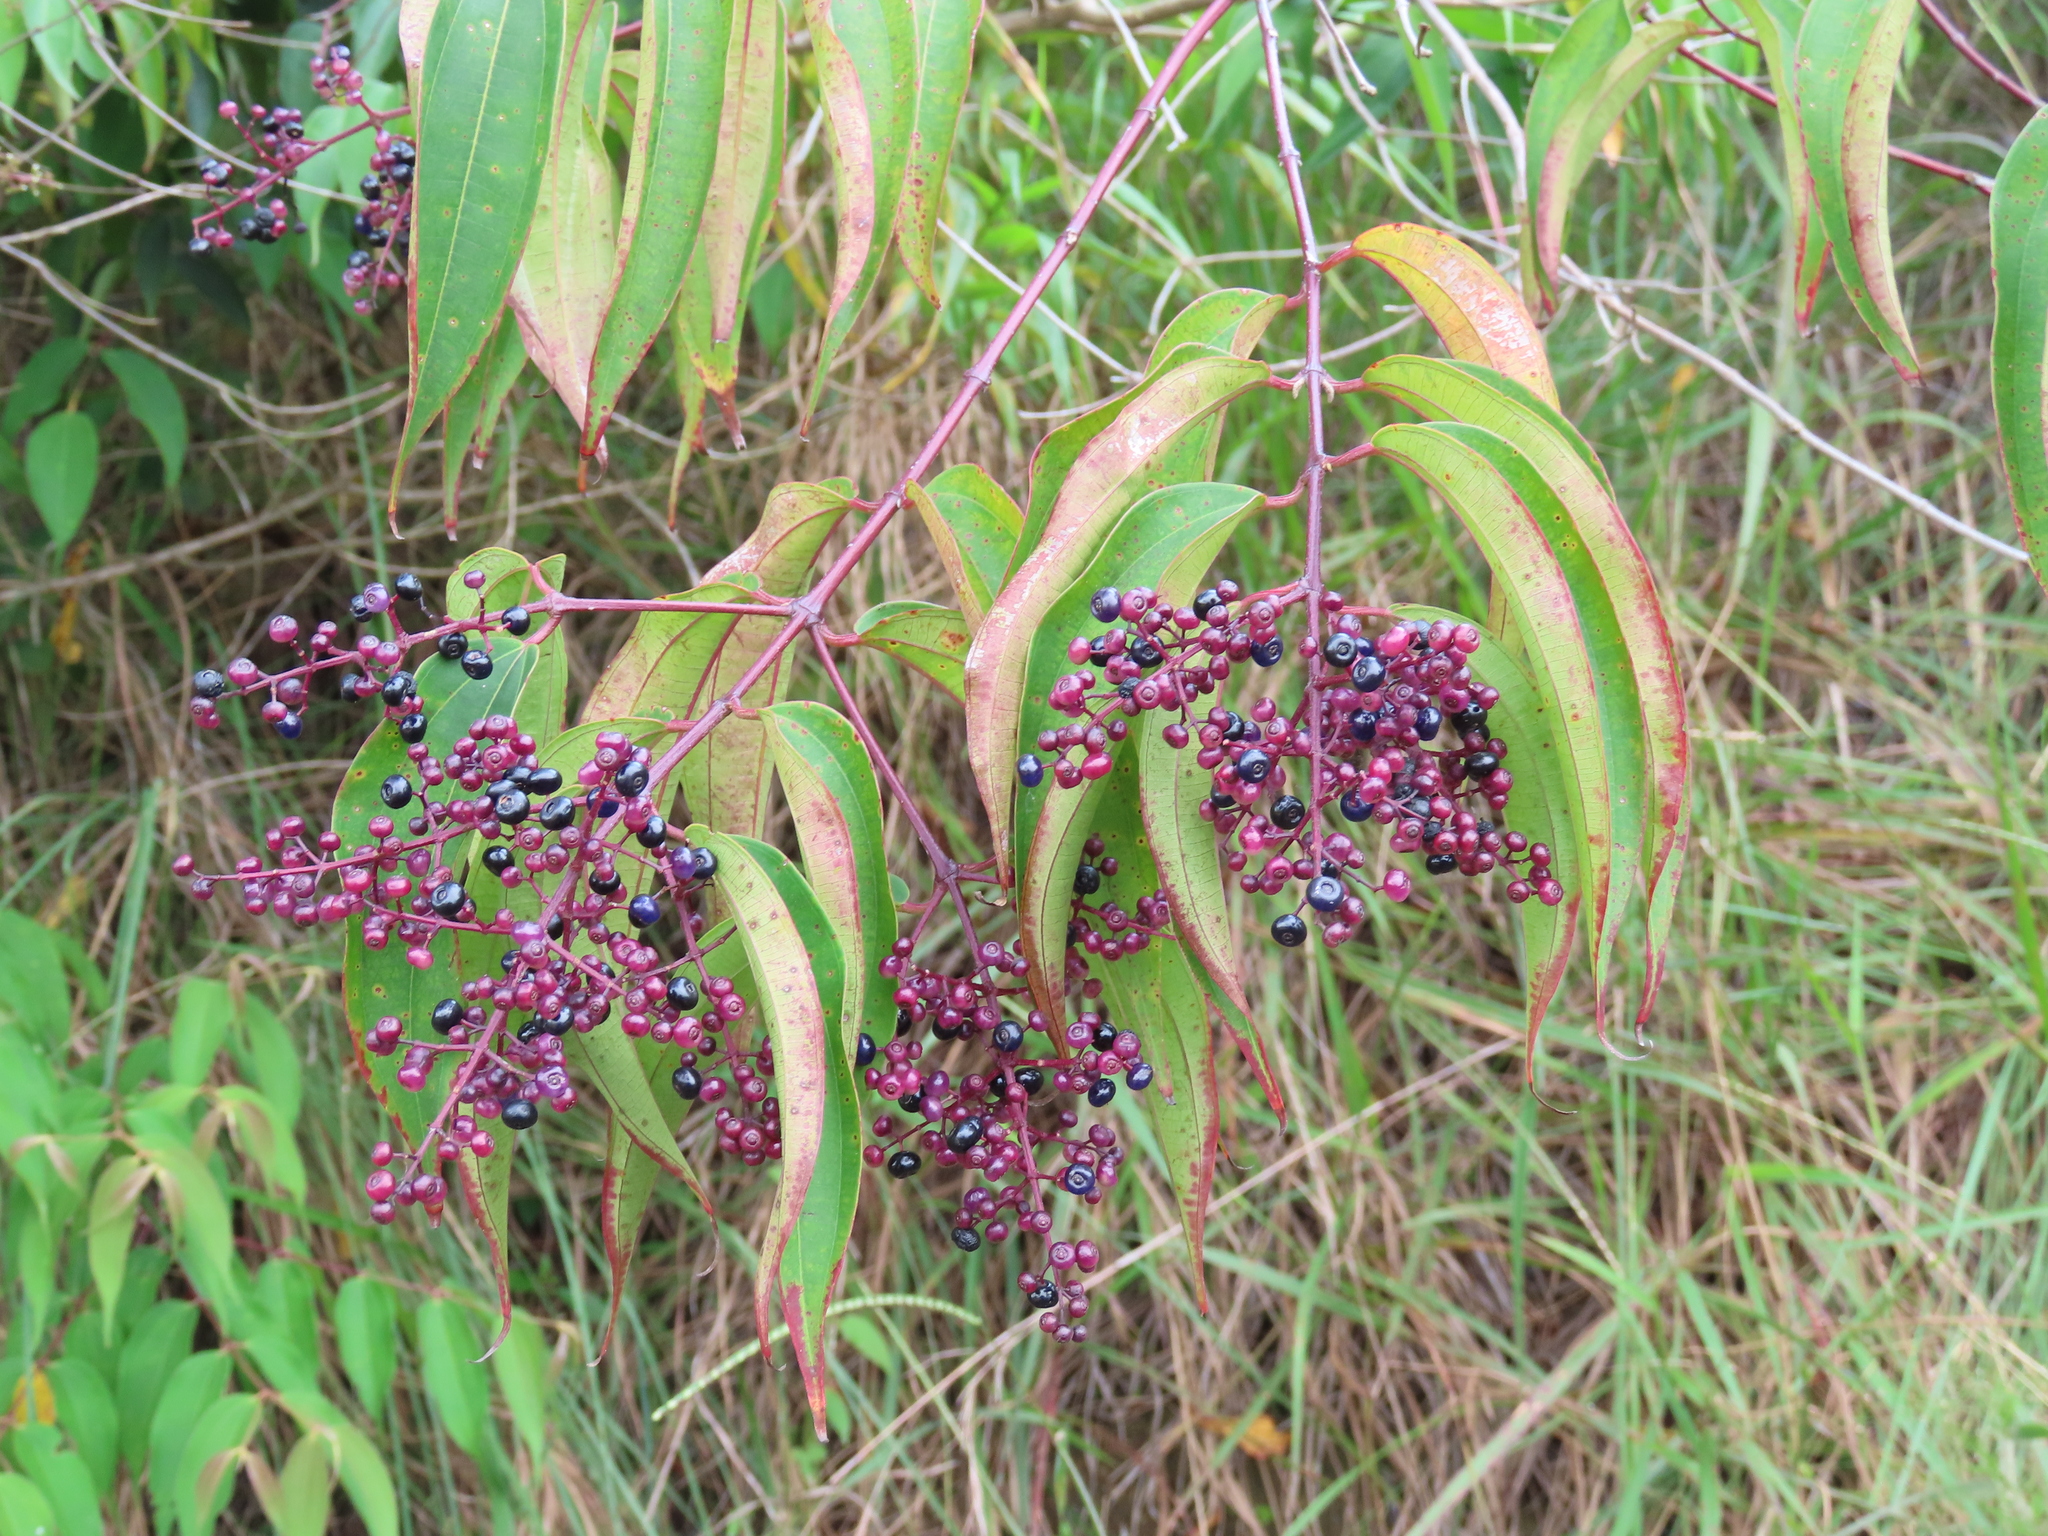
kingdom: Plantae
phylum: Tracheophyta
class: Magnoliopsida
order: Myrtales
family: Melastomataceae
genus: Miconia
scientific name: Miconia minutiflora
